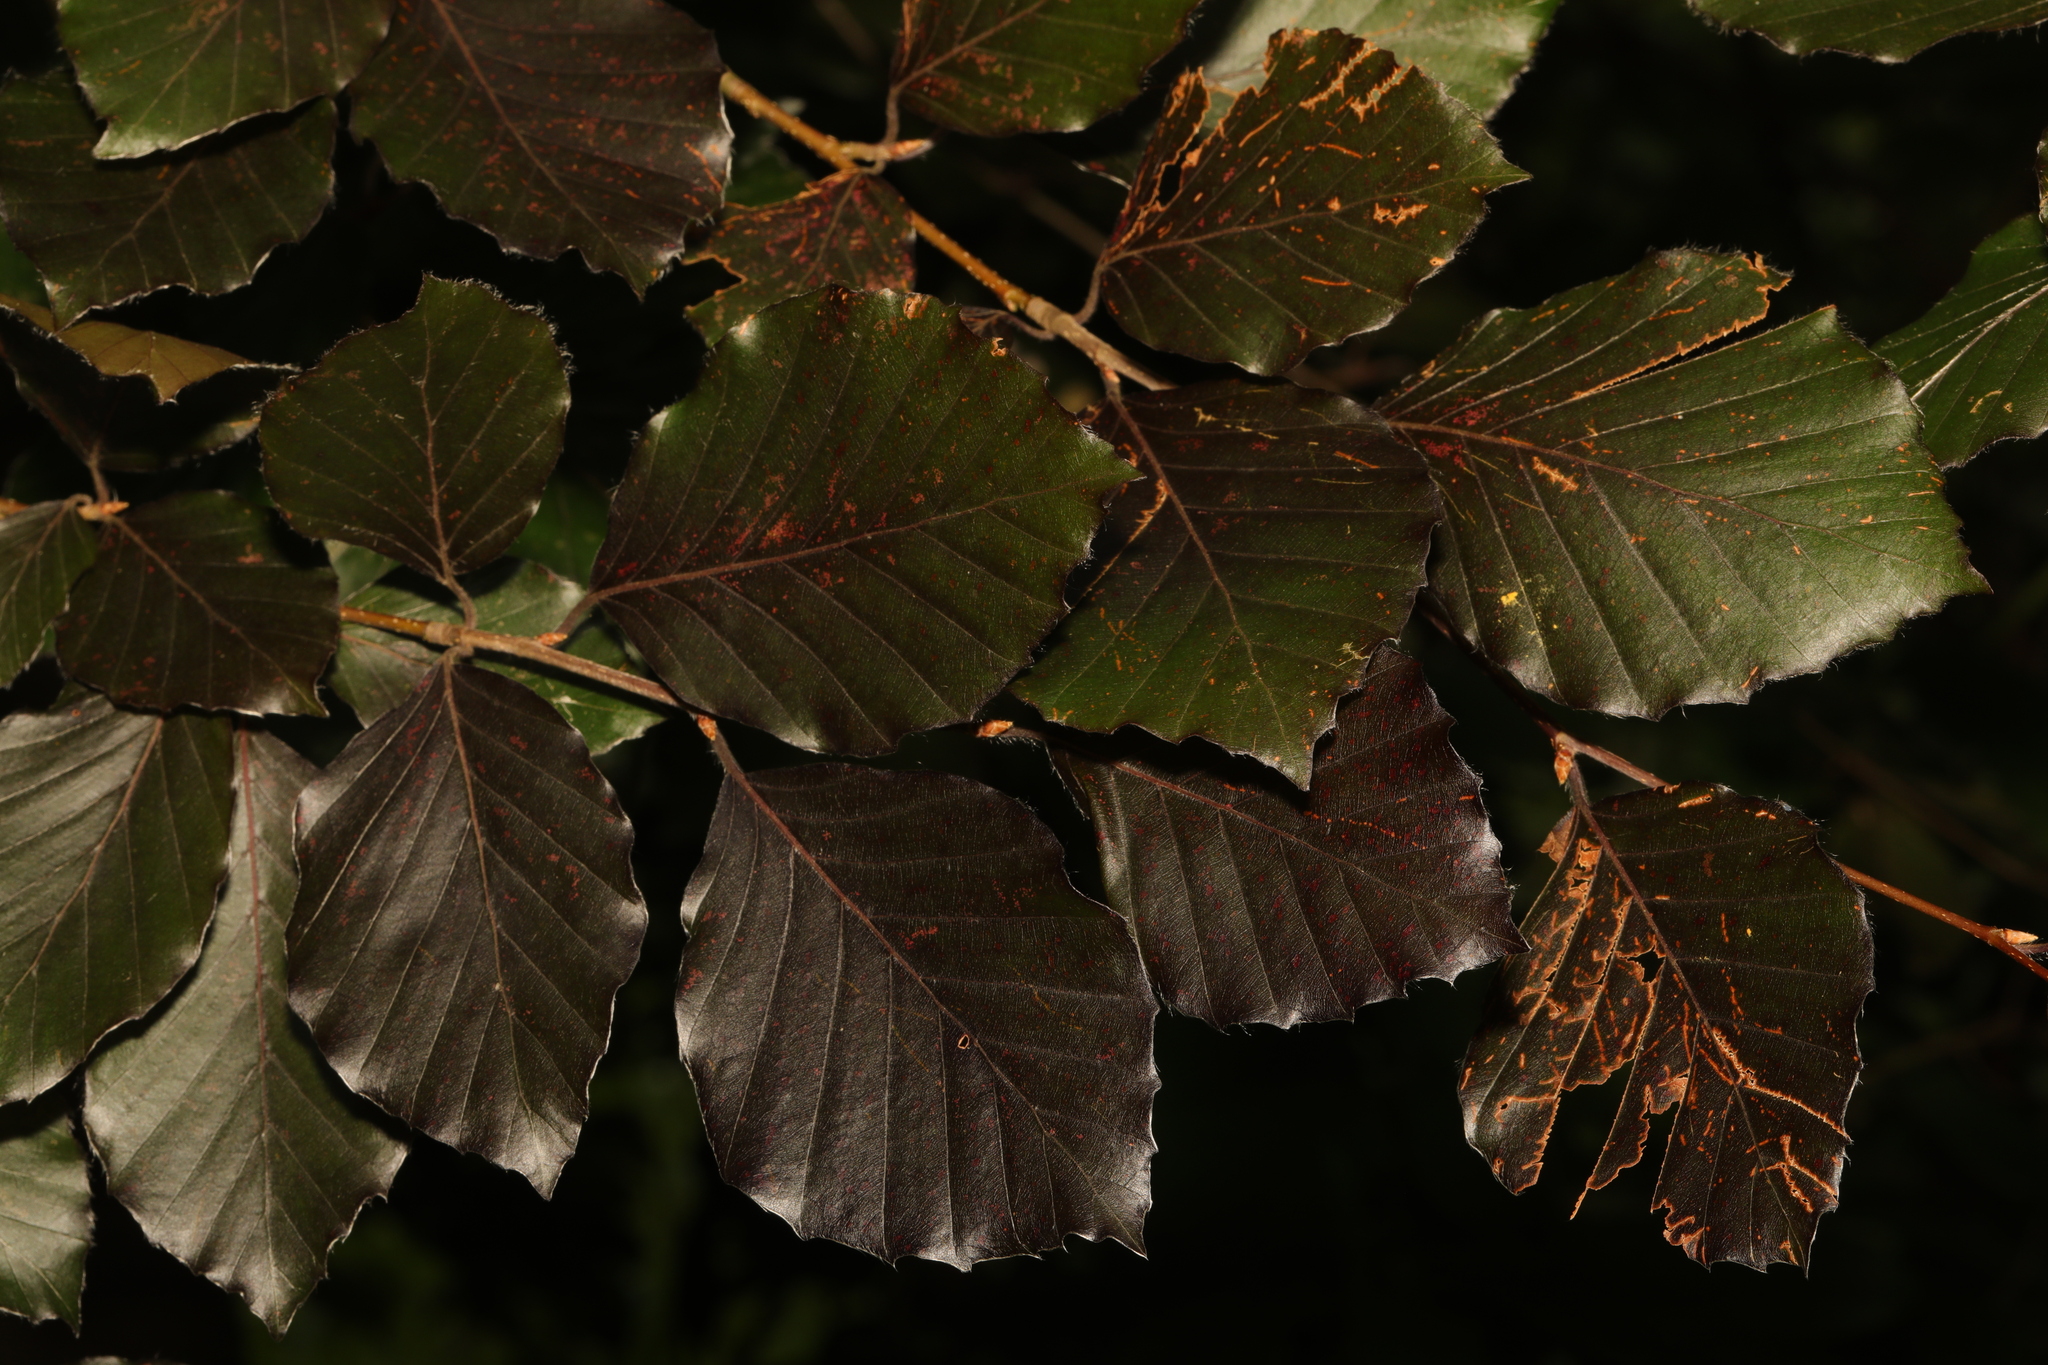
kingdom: Plantae
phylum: Tracheophyta
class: Magnoliopsida
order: Fagales
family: Fagaceae
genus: Fagus
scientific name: Fagus sylvatica
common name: Beech
